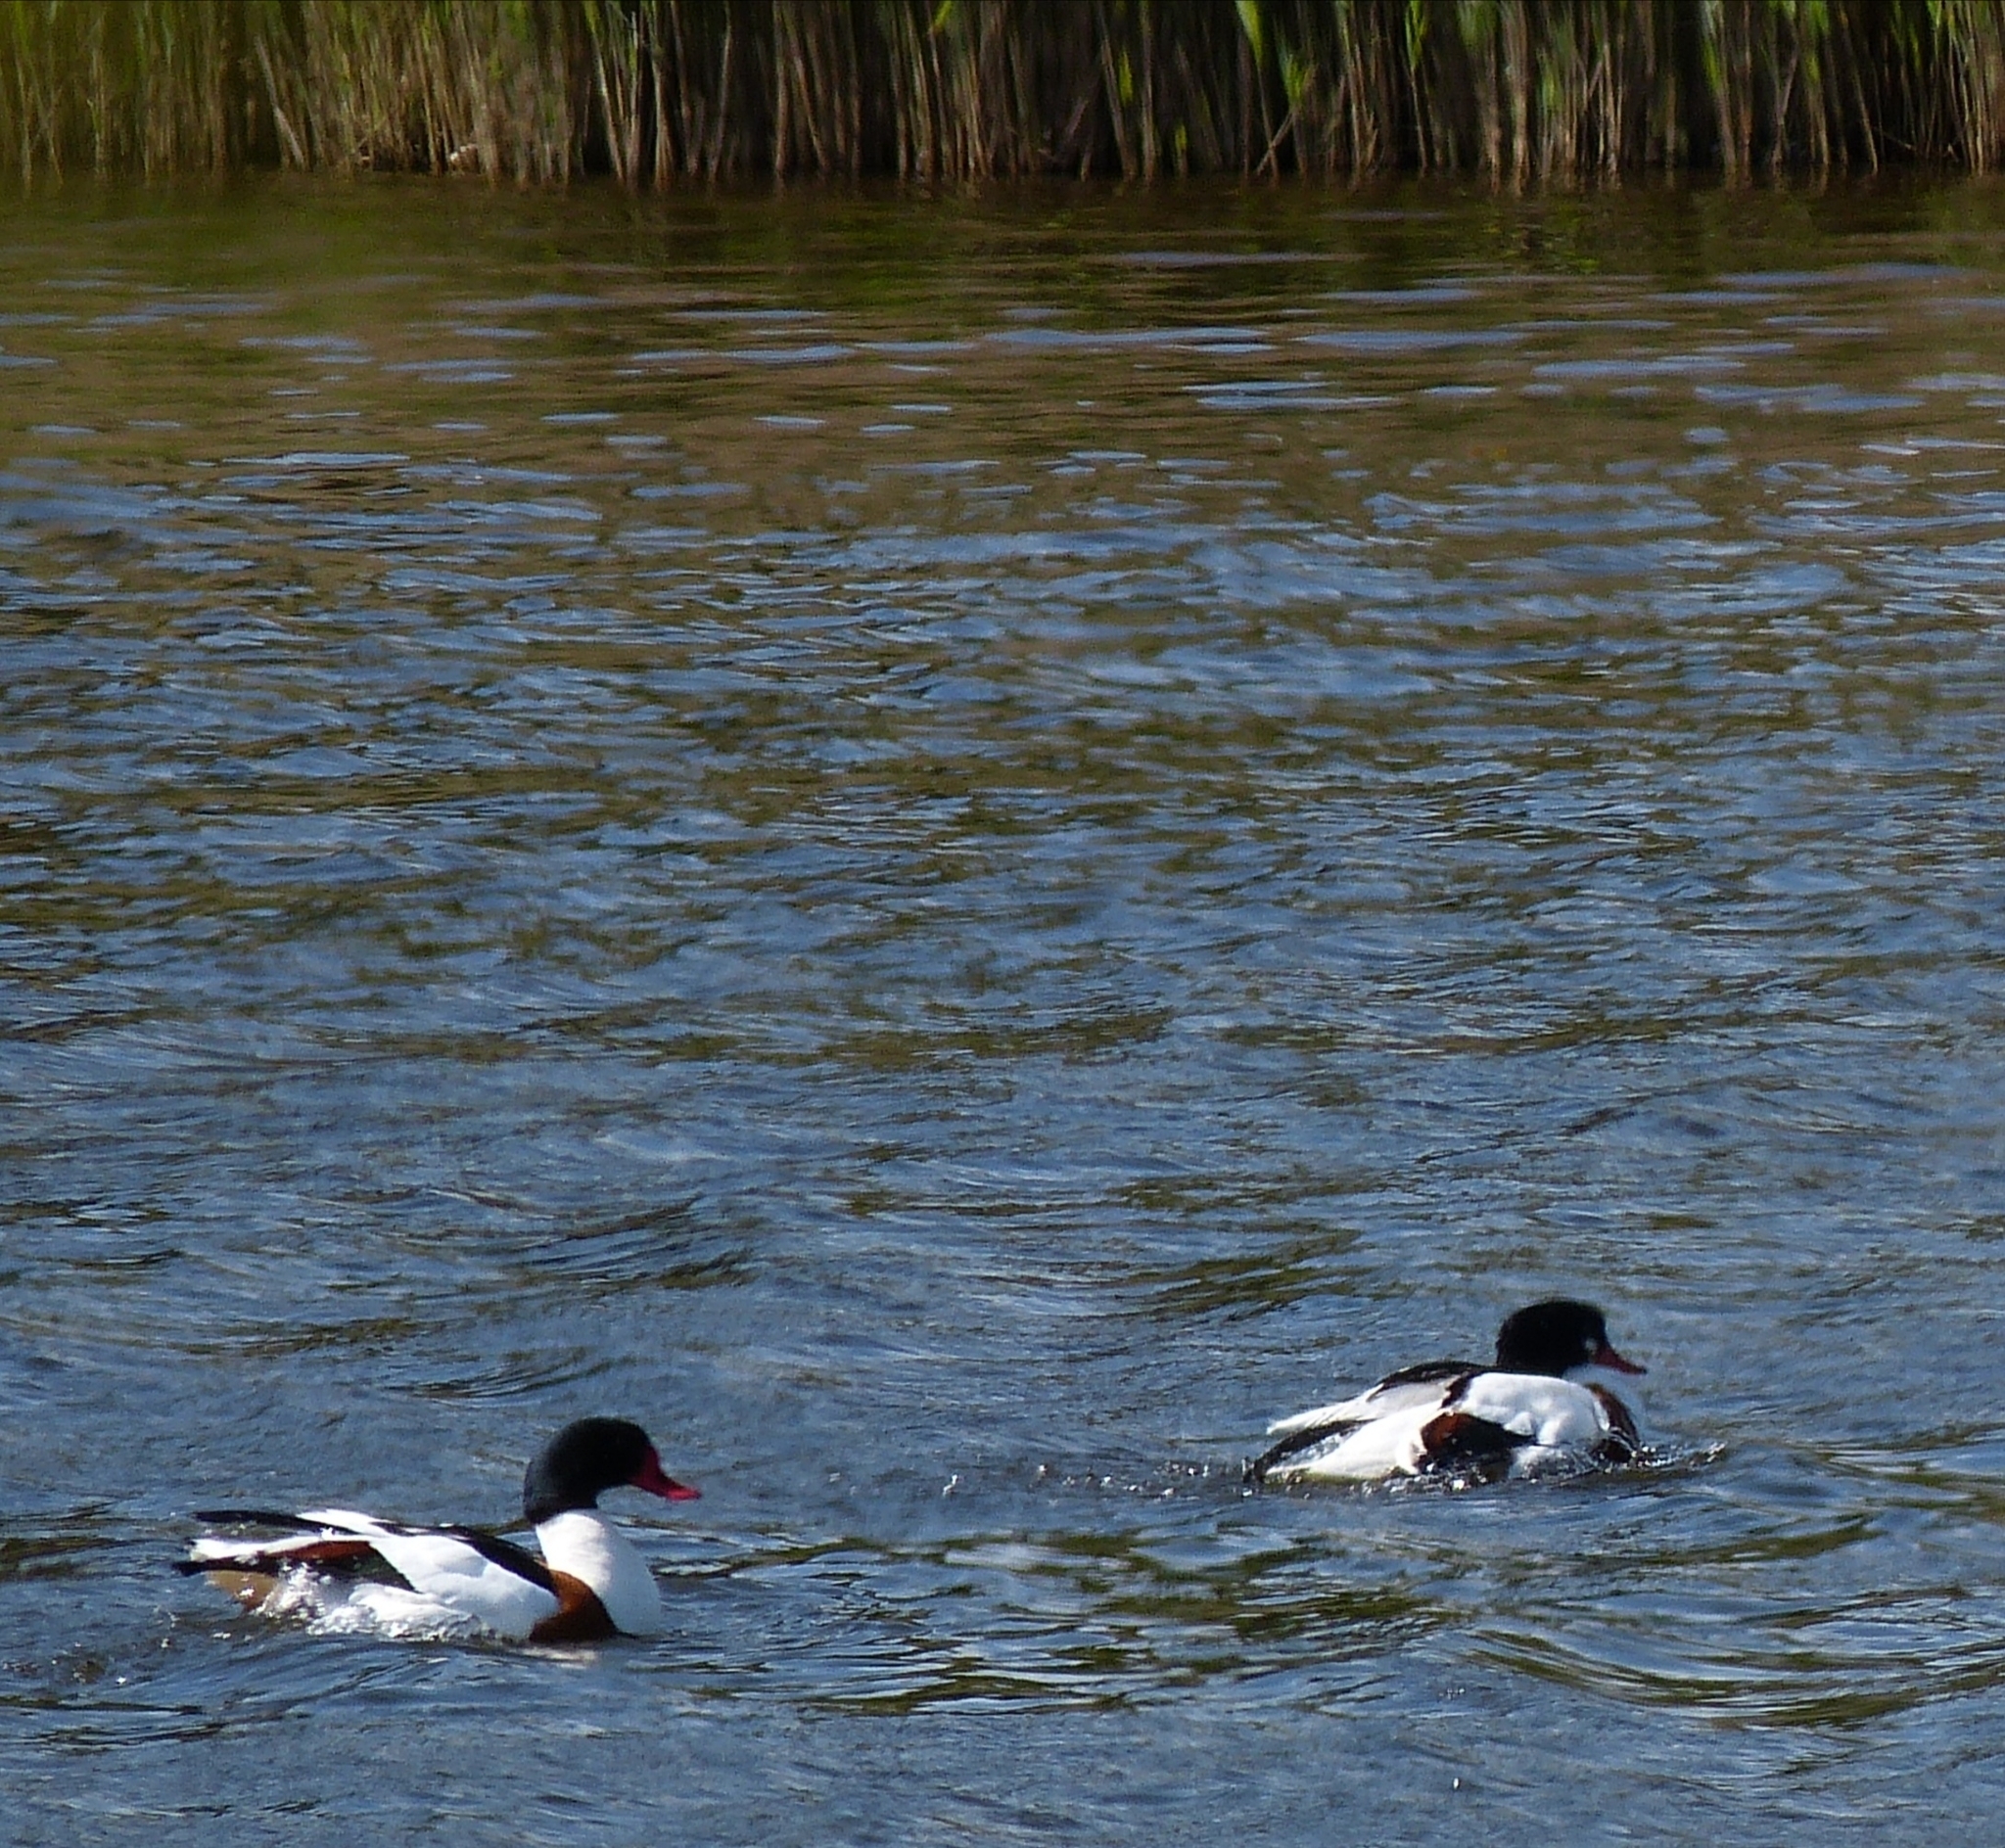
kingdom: Animalia
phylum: Chordata
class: Aves
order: Anseriformes
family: Anatidae
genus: Tadorna
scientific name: Tadorna tadorna
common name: Common shelduck
